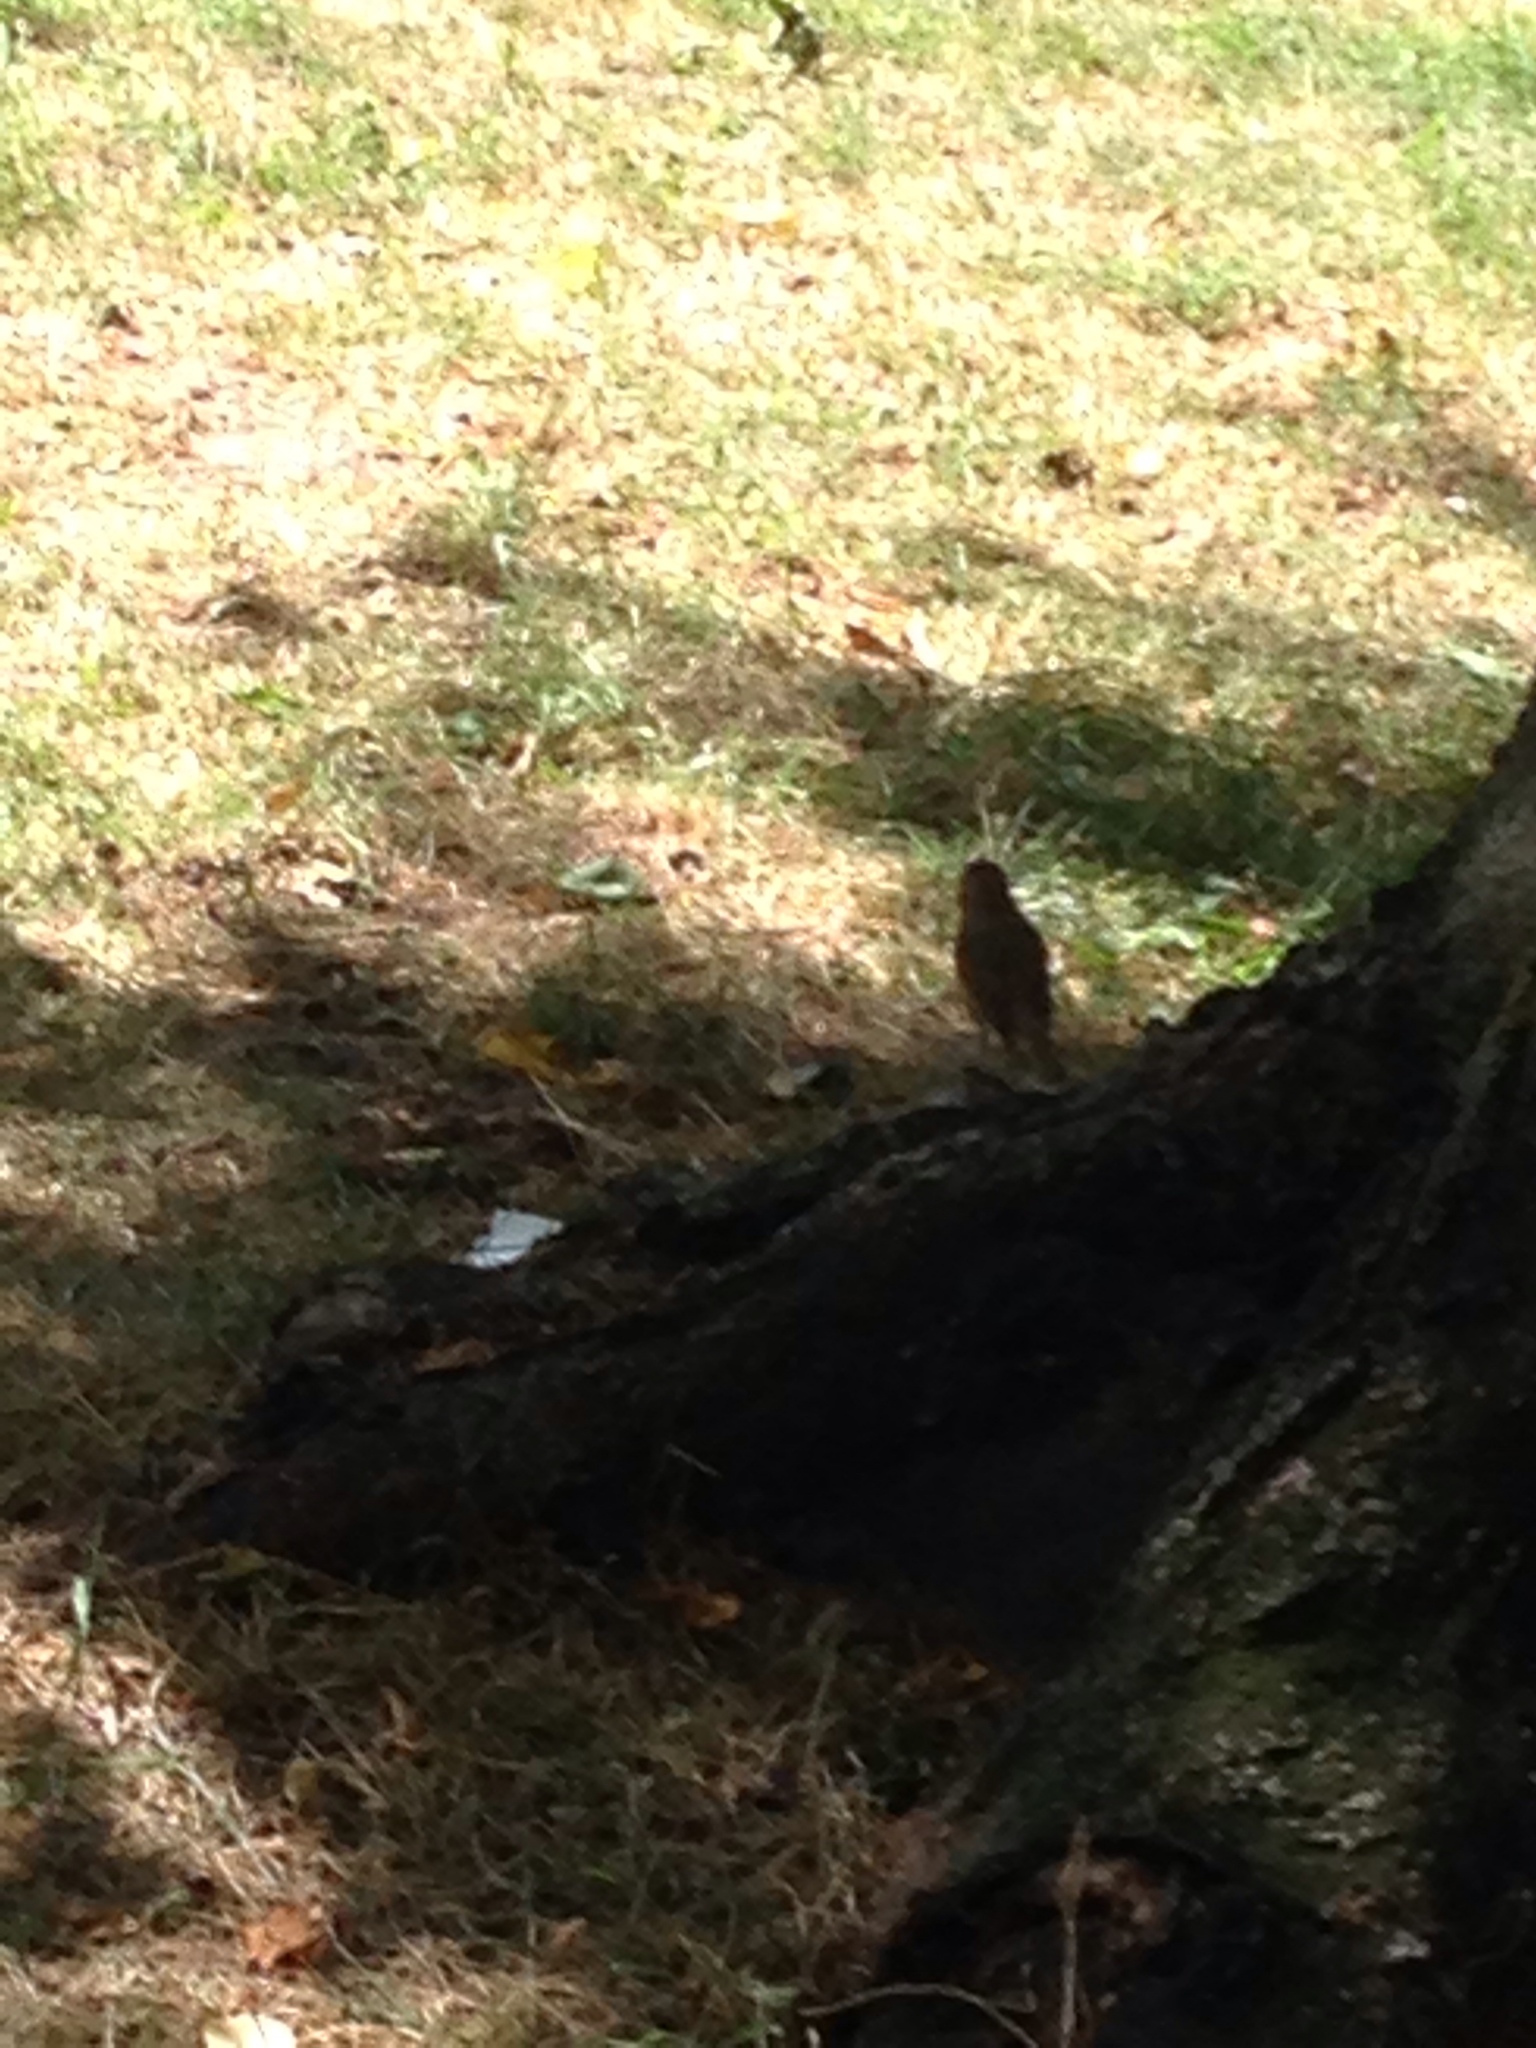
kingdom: Animalia
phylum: Chordata
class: Aves
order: Passeriformes
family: Muscicapidae
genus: Erithacus
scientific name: Erithacus rubecula
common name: European robin
